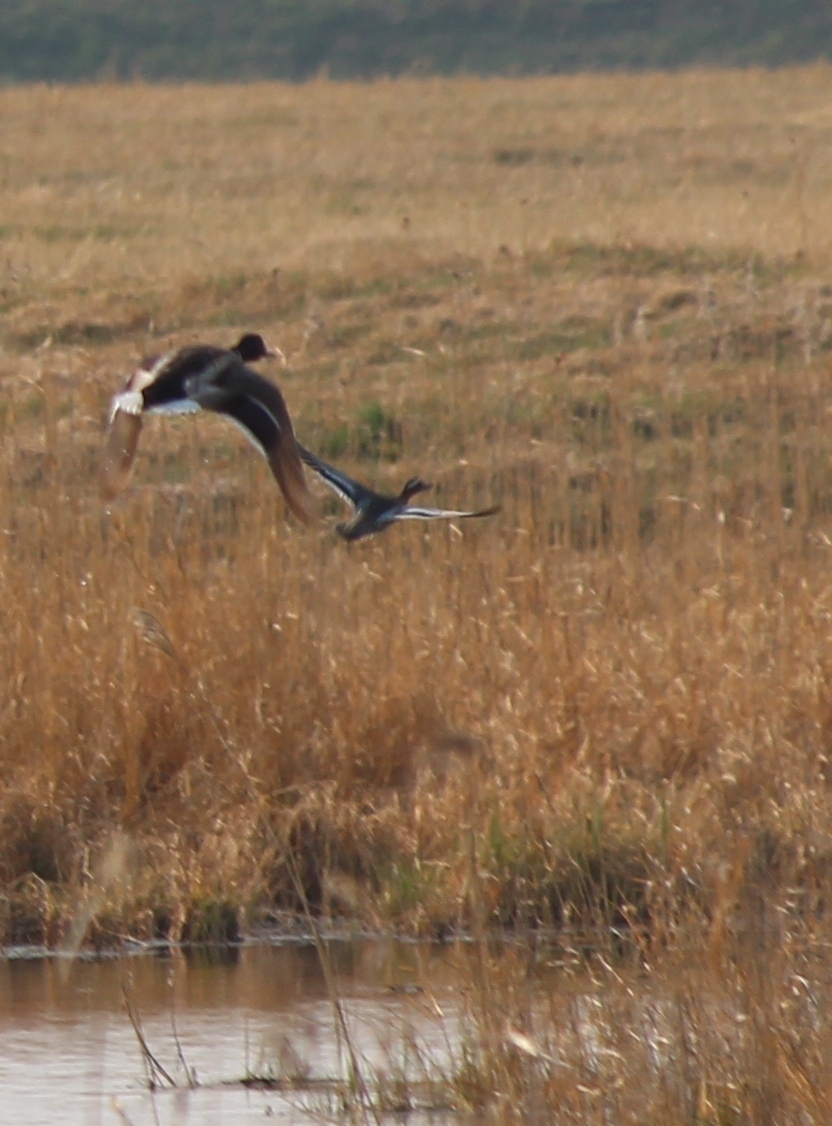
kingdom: Animalia
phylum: Chordata
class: Aves
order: Anseriformes
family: Anatidae
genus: Spatula
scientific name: Spatula querquedula
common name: Garganey
